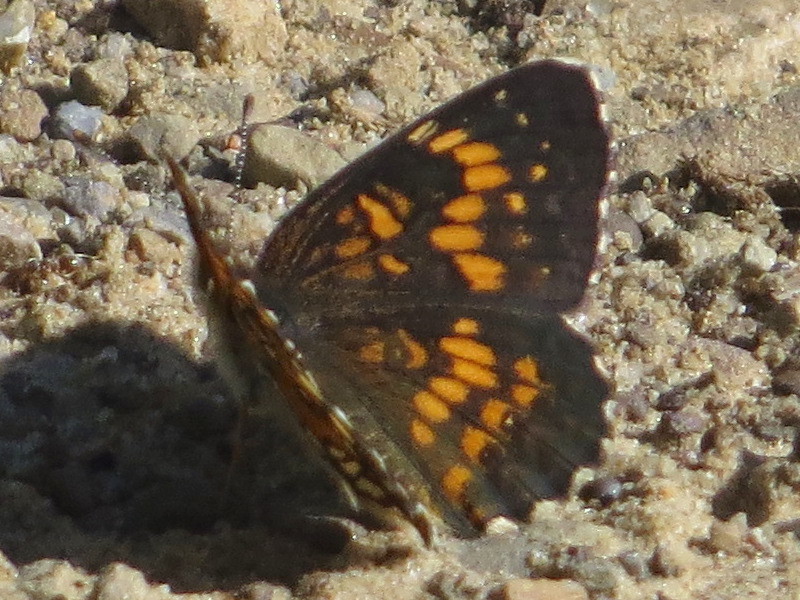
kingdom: Animalia
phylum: Arthropoda
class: Insecta
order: Lepidoptera
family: Nymphalidae
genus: Chlosyne
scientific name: Chlosyne harrisii
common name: Harris's checkerspot
